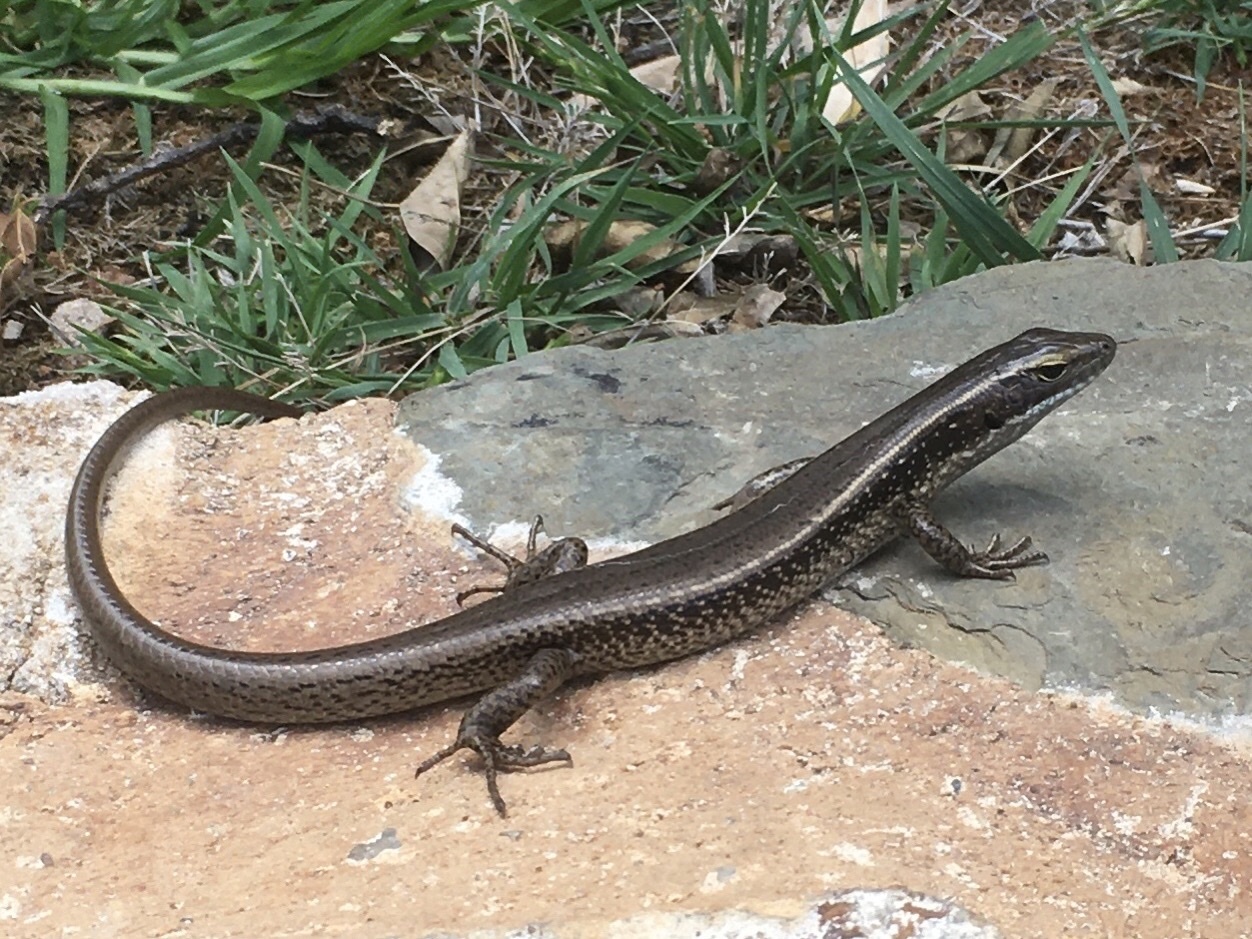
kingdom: Animalia
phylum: Chordata
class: Squamata
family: Scincidae
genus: Eulamprus
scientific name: Eulamprus quoyii
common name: Eastern water skink
